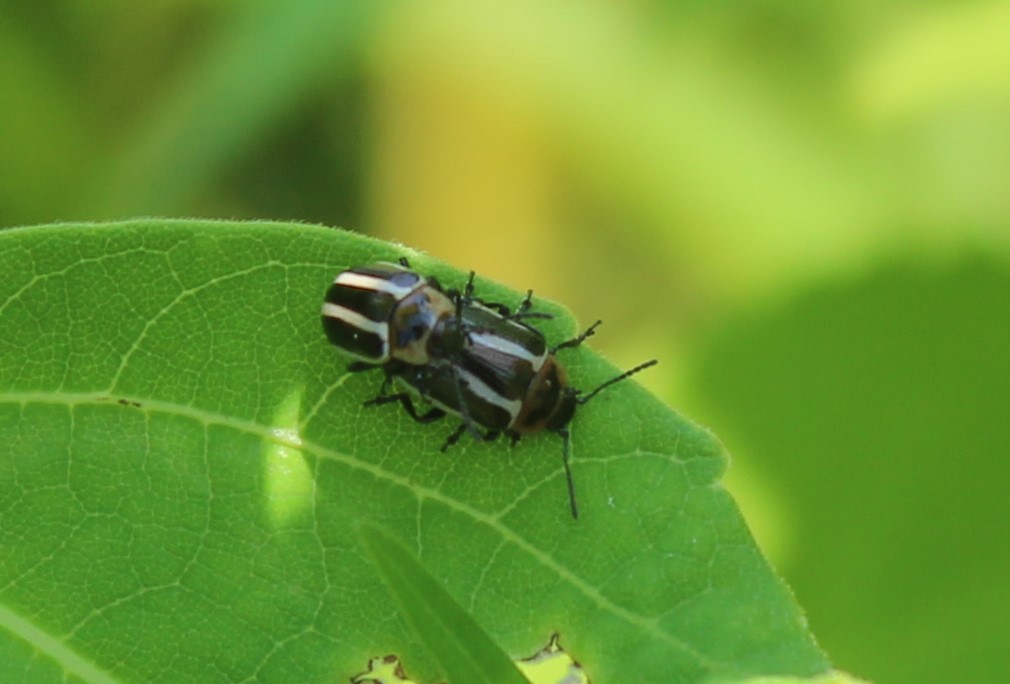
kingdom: Animalia
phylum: Arthropoda
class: Insecta
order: Coleoptera
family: Chrysomelidae
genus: Calligrapha
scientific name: Calligrapha californica
